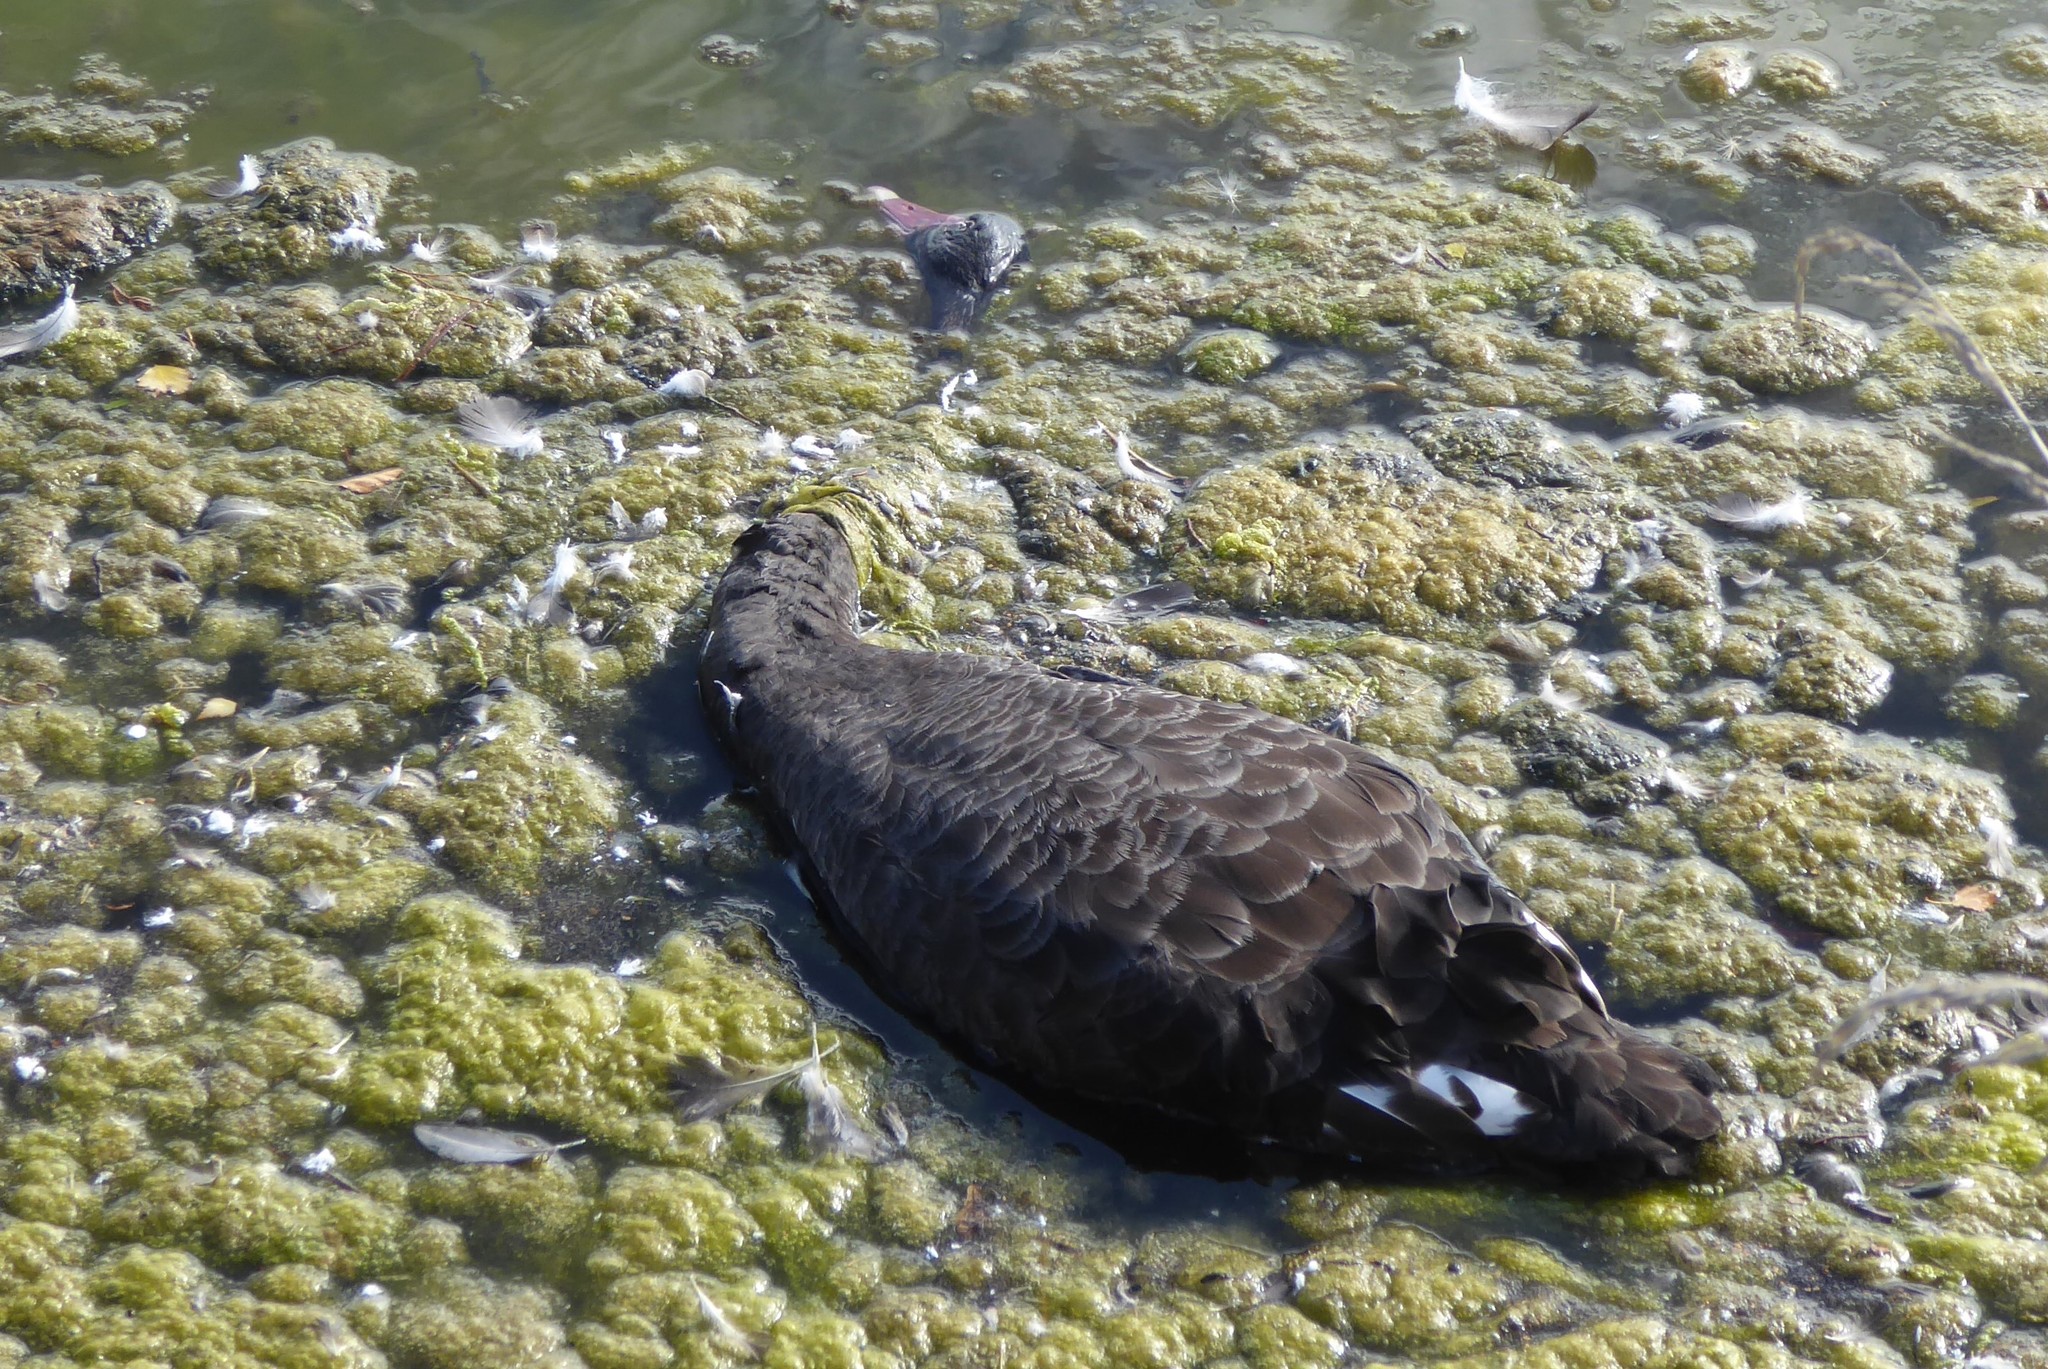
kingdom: Animalia
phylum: Chordata
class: Aves
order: Anseriformes
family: Anatidae
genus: Cygnus
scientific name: Cygnus atratus
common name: Black swan
